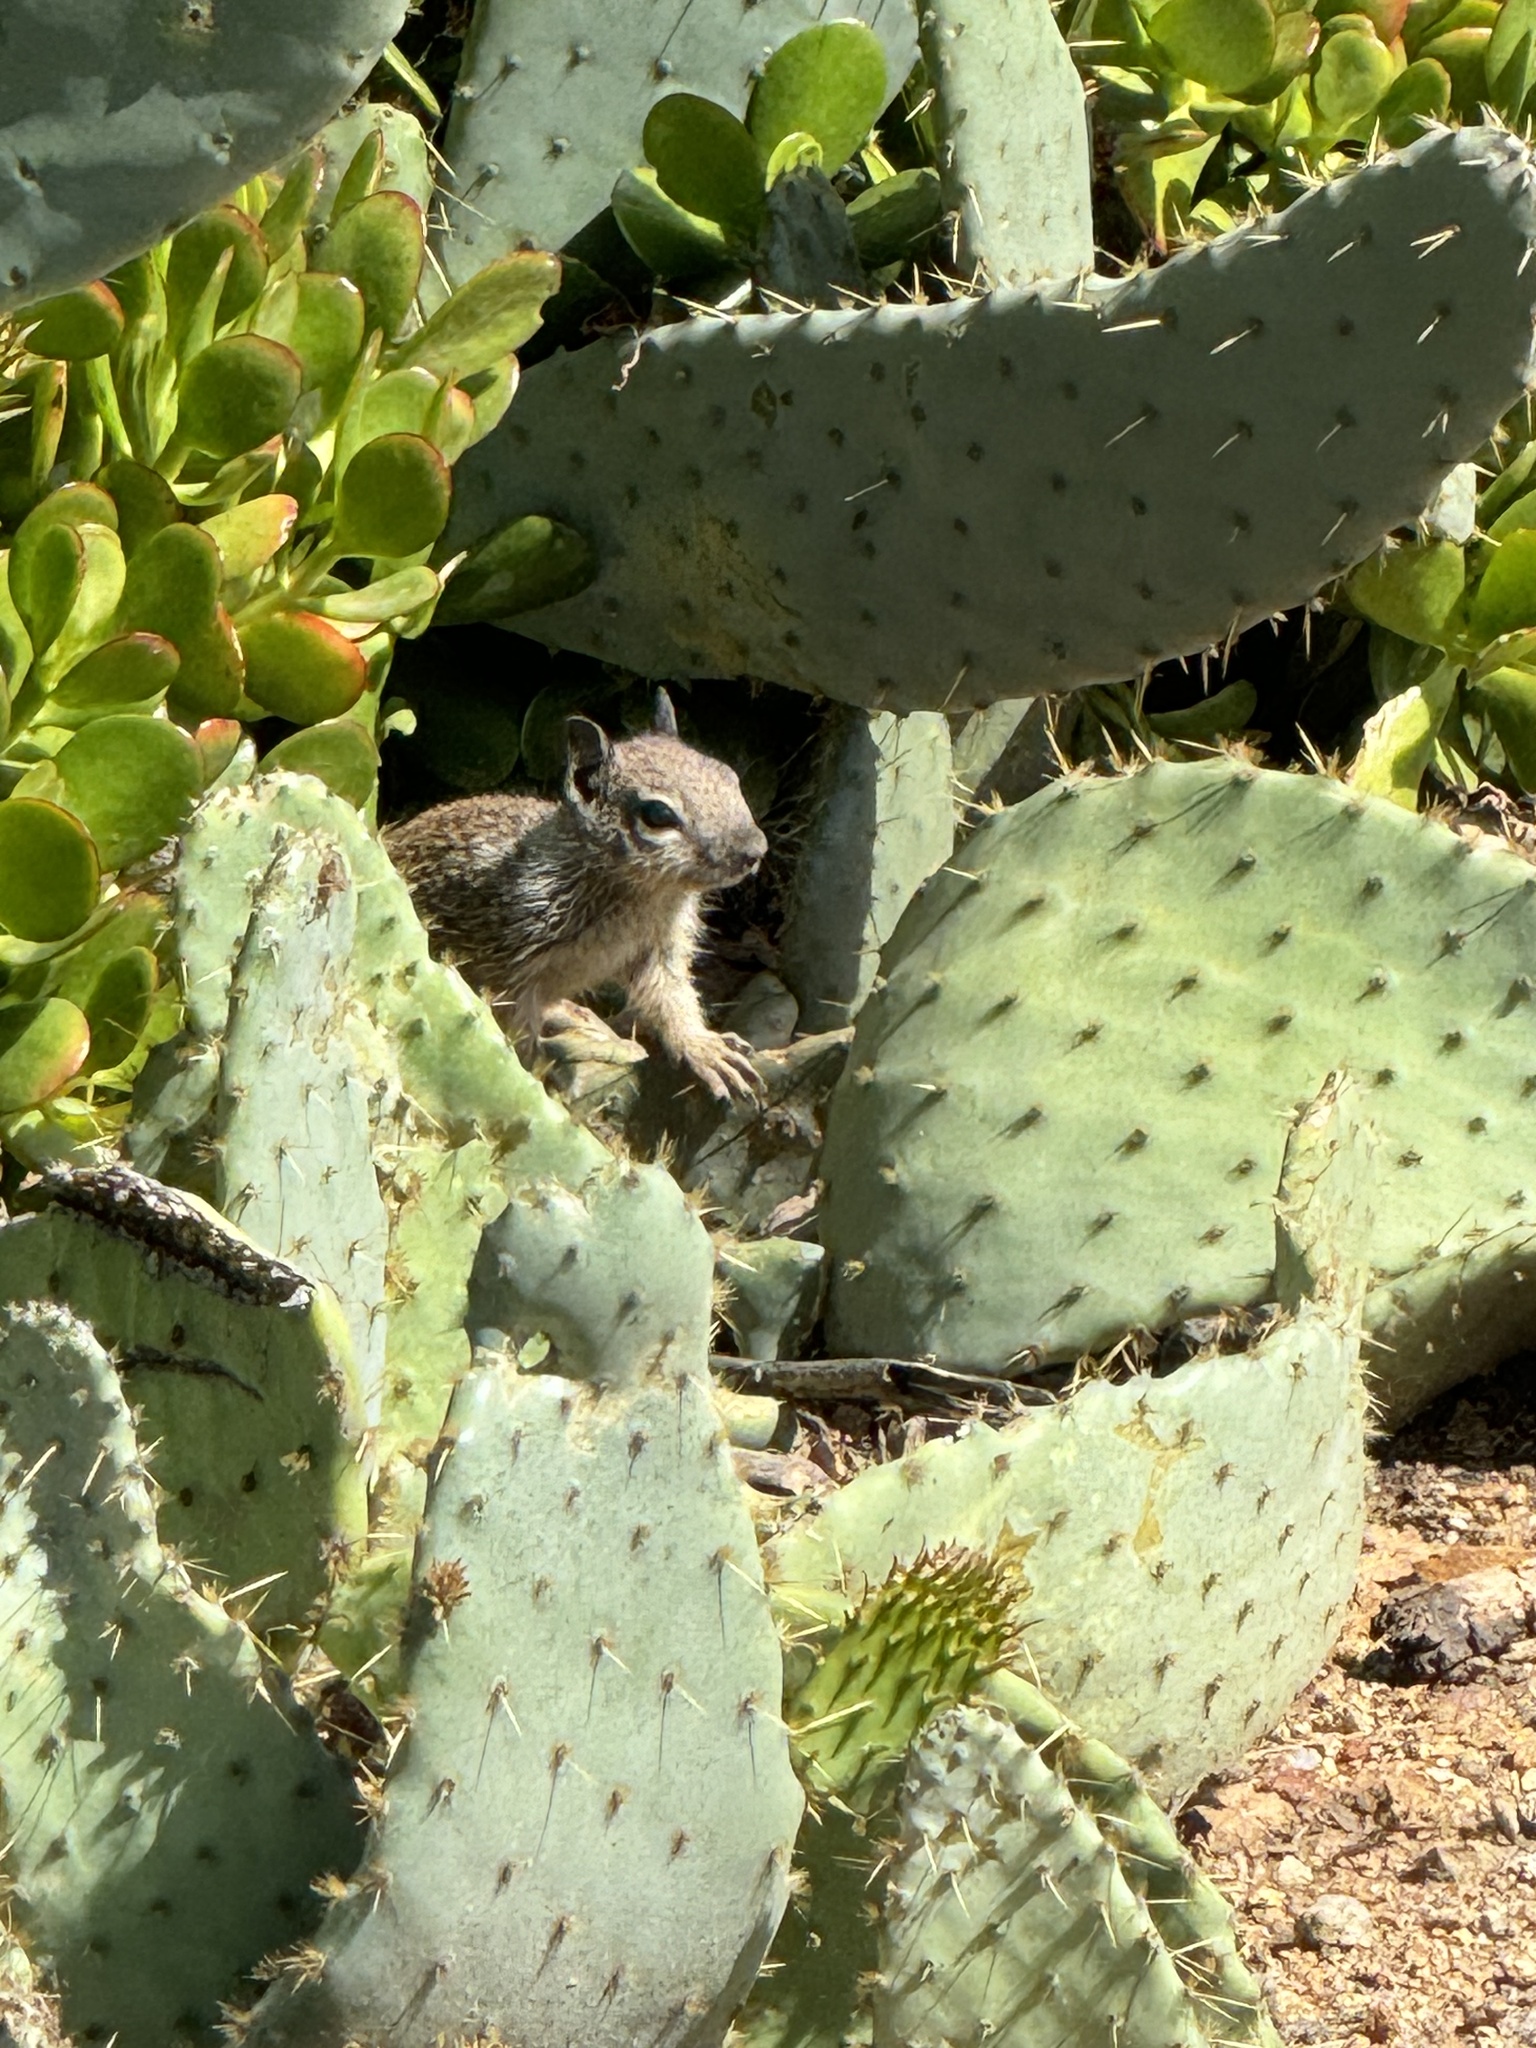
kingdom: Animalia
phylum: Chordata
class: Mammalia
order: Rodentia
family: Sciuridae
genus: Otospermophilus
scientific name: Otospermophilus beecheyi
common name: California ground squirrel
